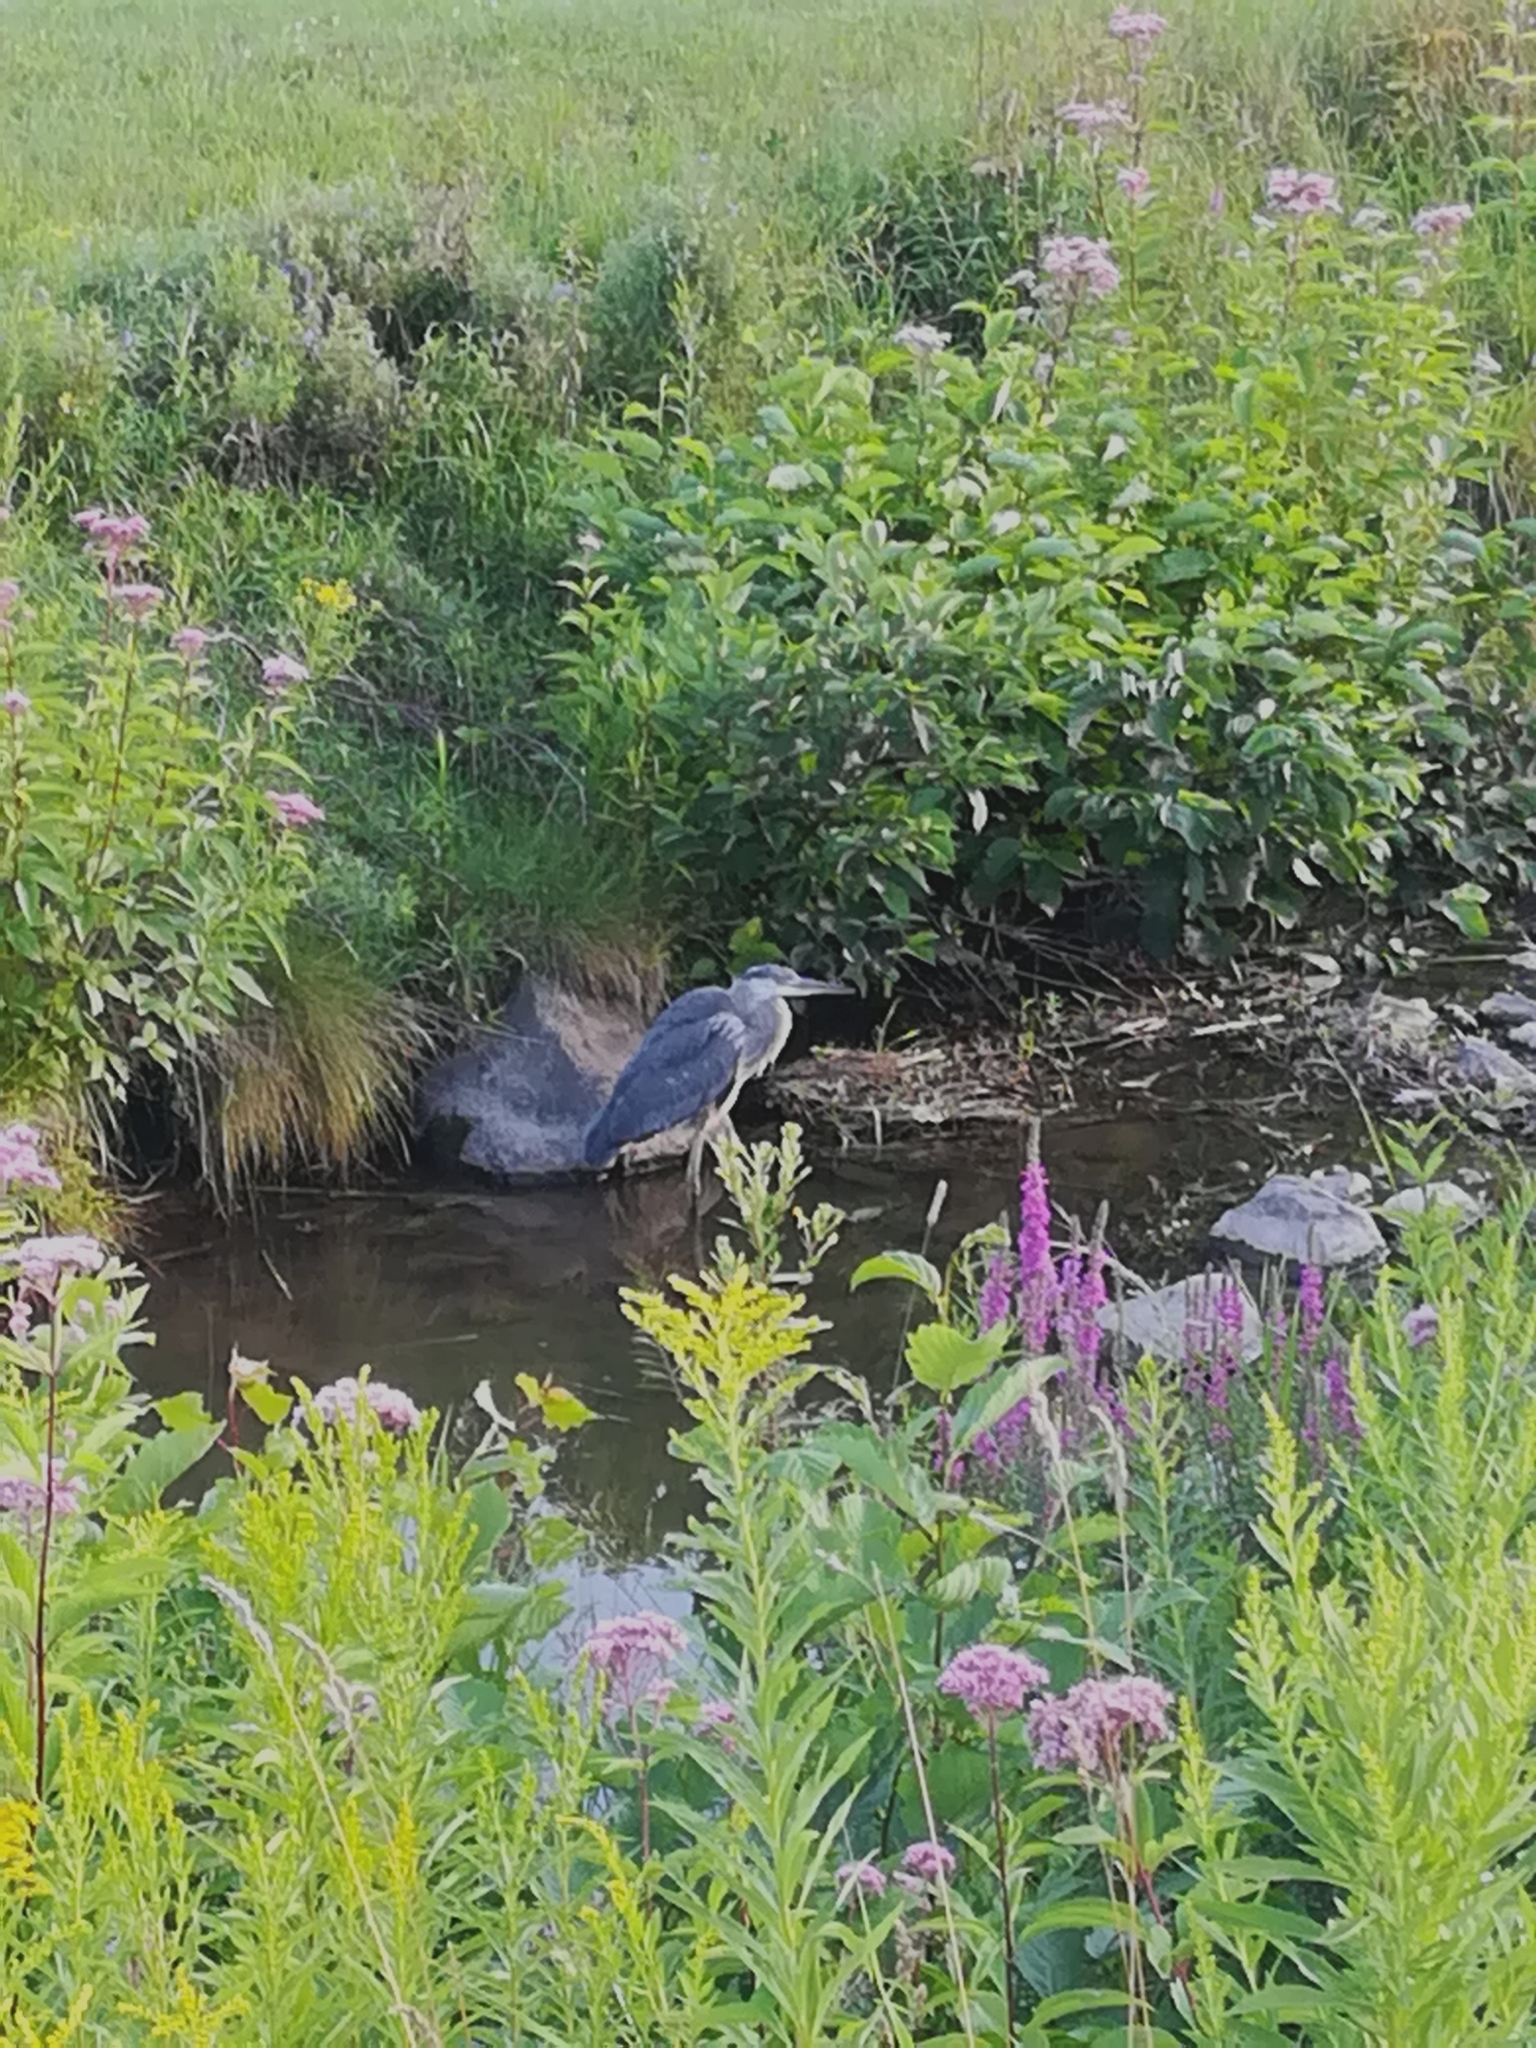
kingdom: Animalia
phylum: Chordata
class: Aves
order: Pelecaniformes
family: Ardeidae
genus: Ardea
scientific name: Ardea herodias
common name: Great blue heron
